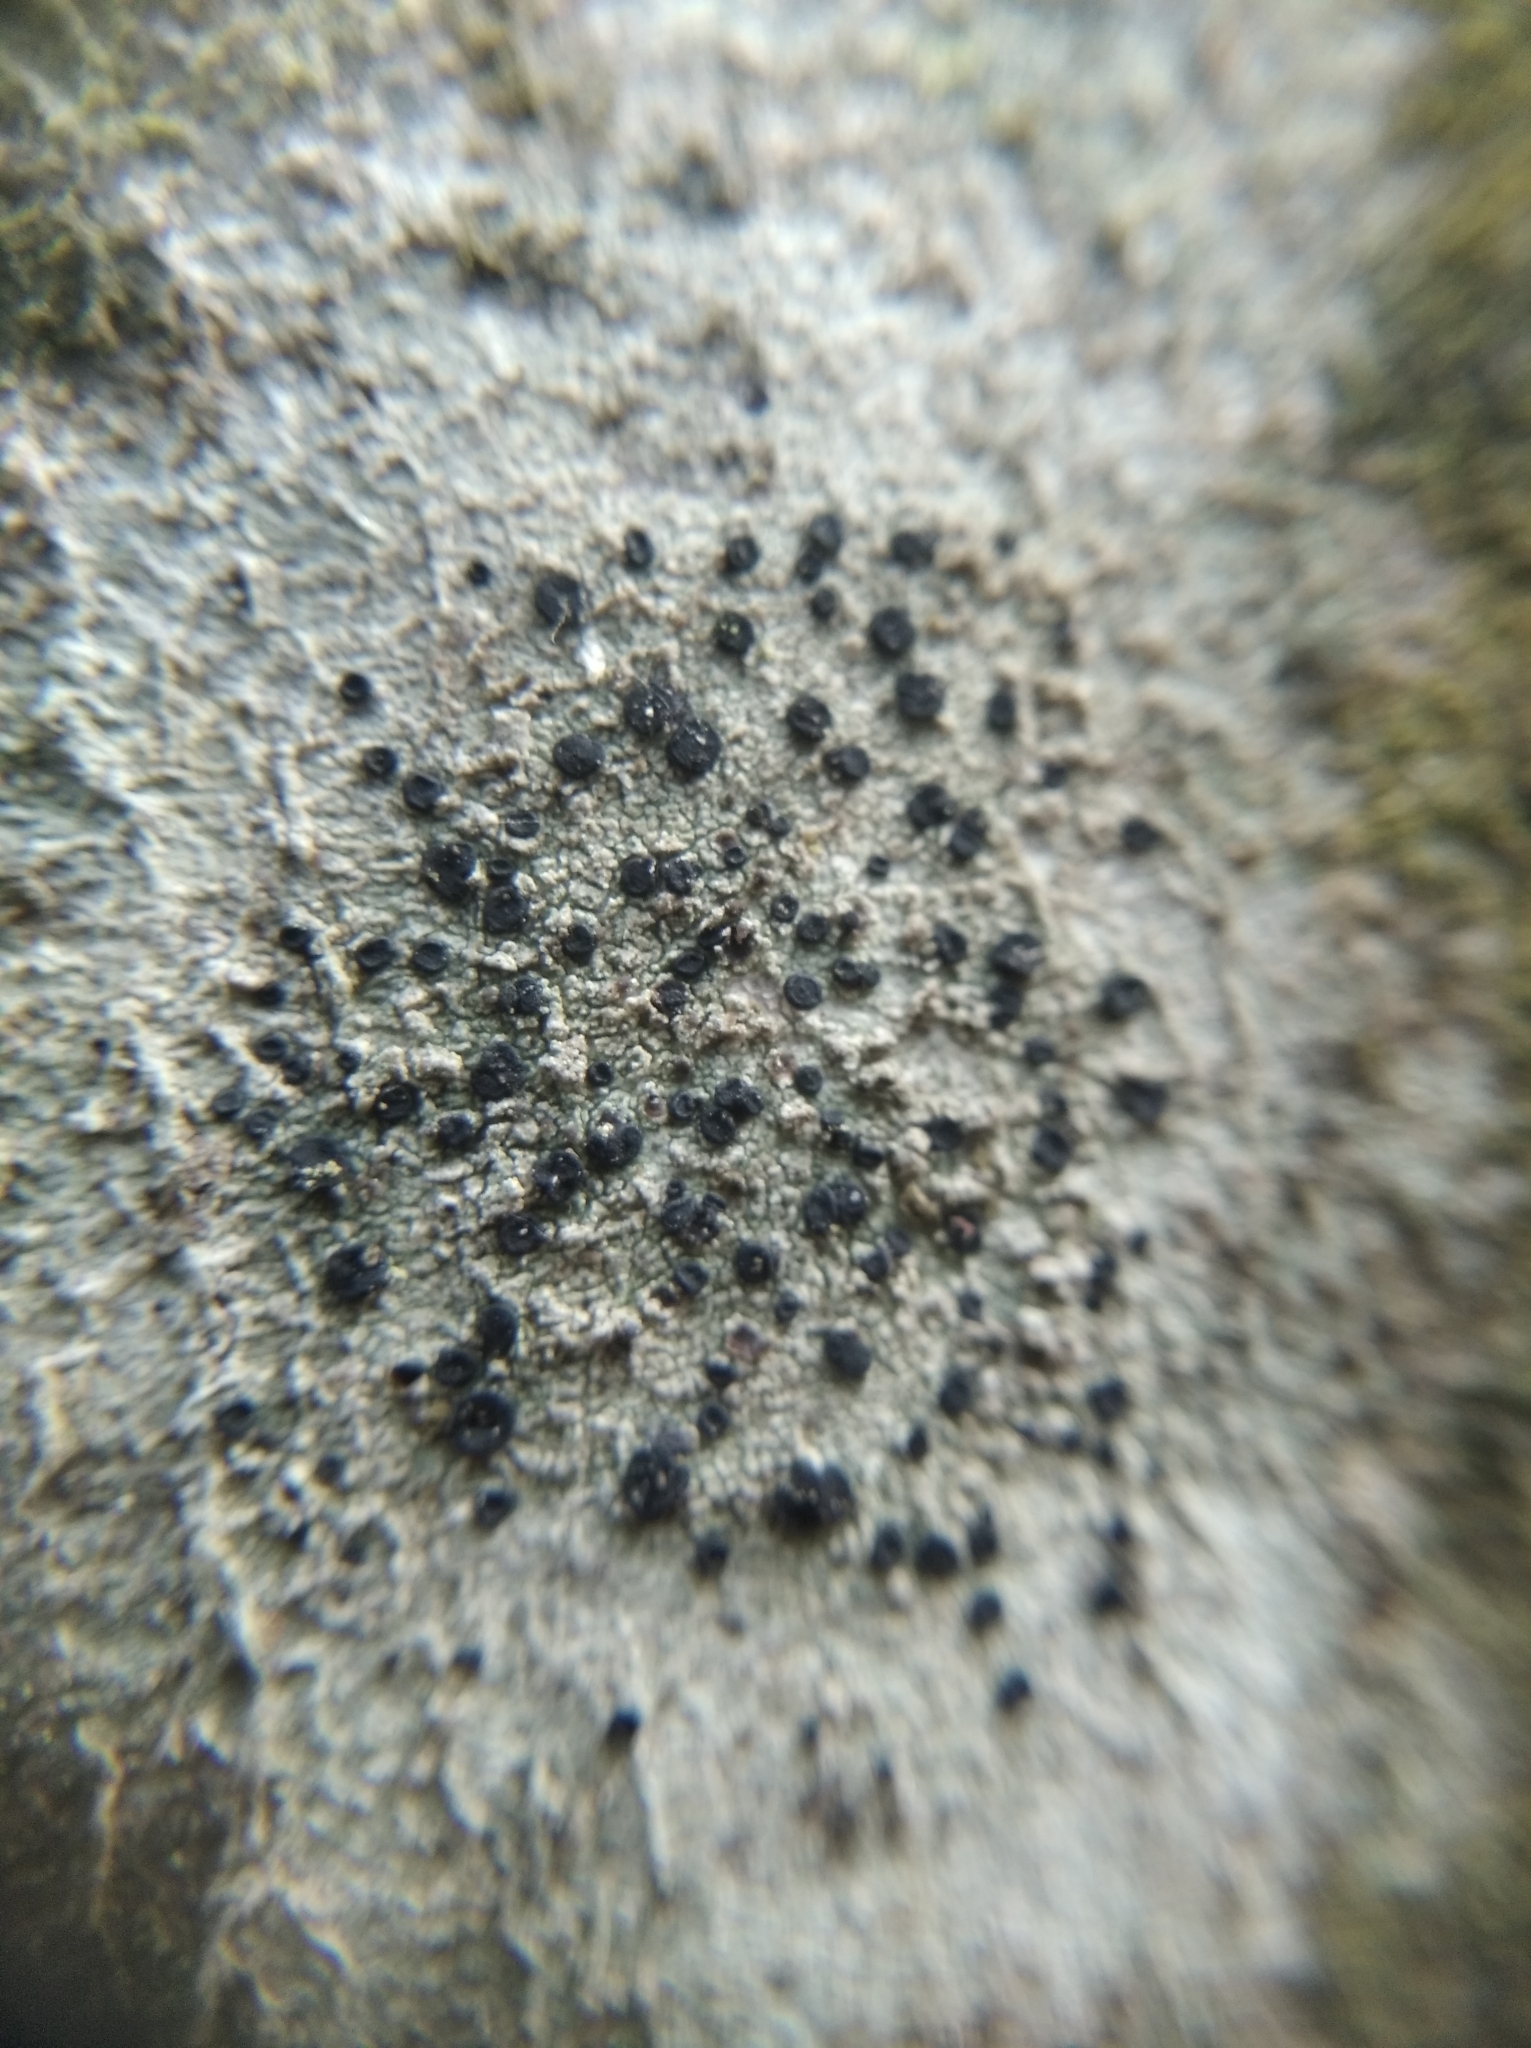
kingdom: Fungi
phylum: Ascomycota
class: Lecanoromycetes
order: Lecanorales
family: Lecanoraceae
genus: Lecidella
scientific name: Lecidella elaeochroma
